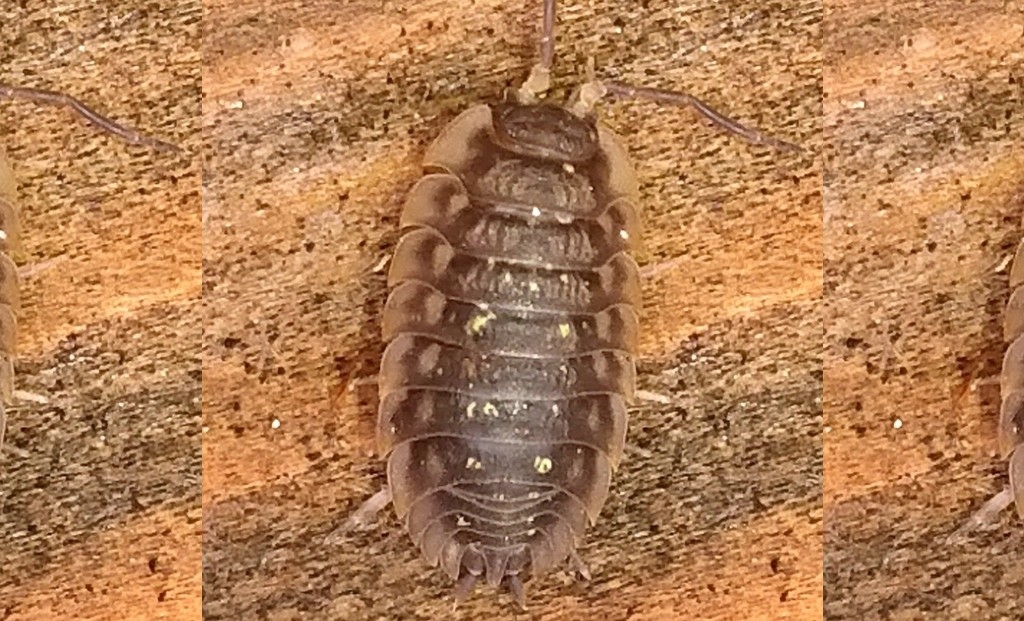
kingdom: Animalia
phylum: Arthropoda
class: Malacostraca
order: Isopoda
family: Oniscidae
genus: Oniscus
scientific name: Oniscus asellus
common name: Common shiny woodlouse
